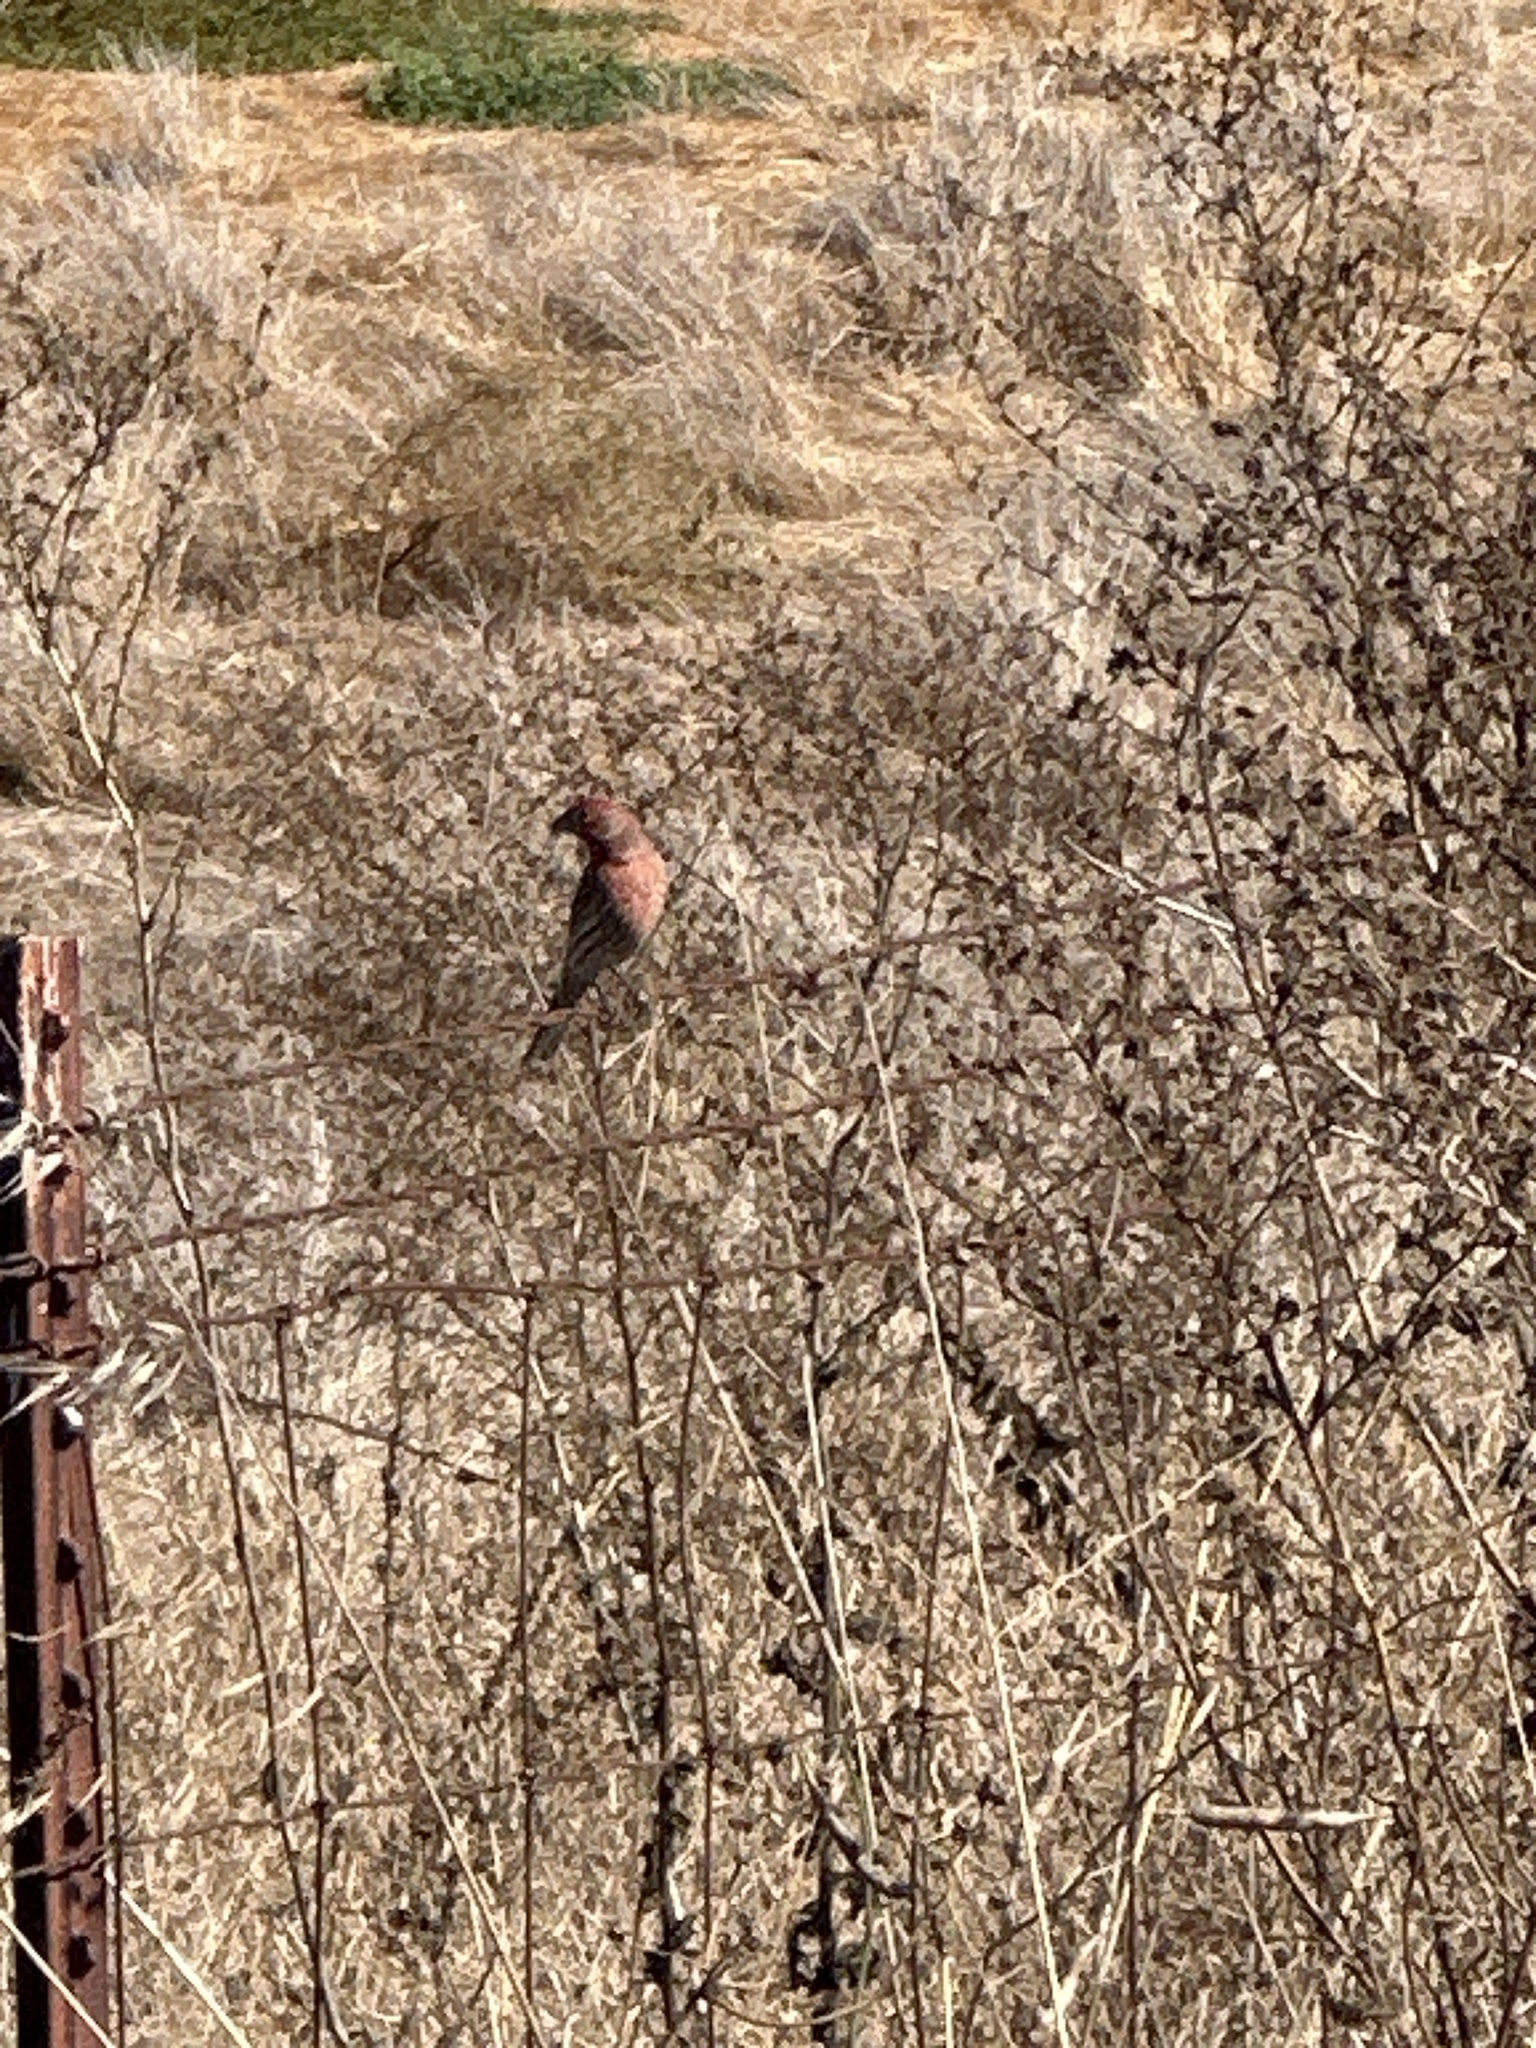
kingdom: Animalia
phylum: Chordata
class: Aves
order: Passeriformes
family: Fringillidae
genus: Haemorhous
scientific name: Haemorhous mexicanus
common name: House finch
